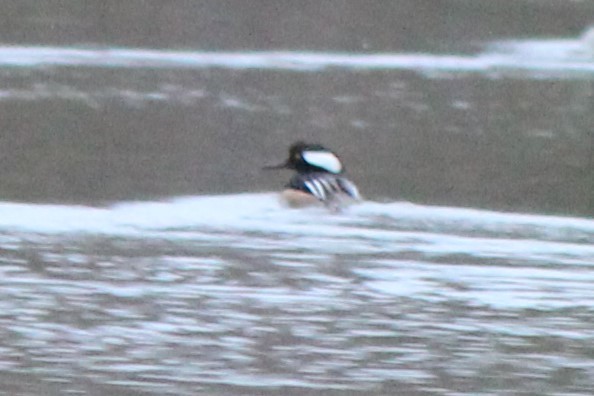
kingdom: Animalia
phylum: Chordata
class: Aves
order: Anseriformes
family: Anatidae
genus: Lophodytes
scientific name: Lophodytes cucullatus
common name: Hooded merganser
